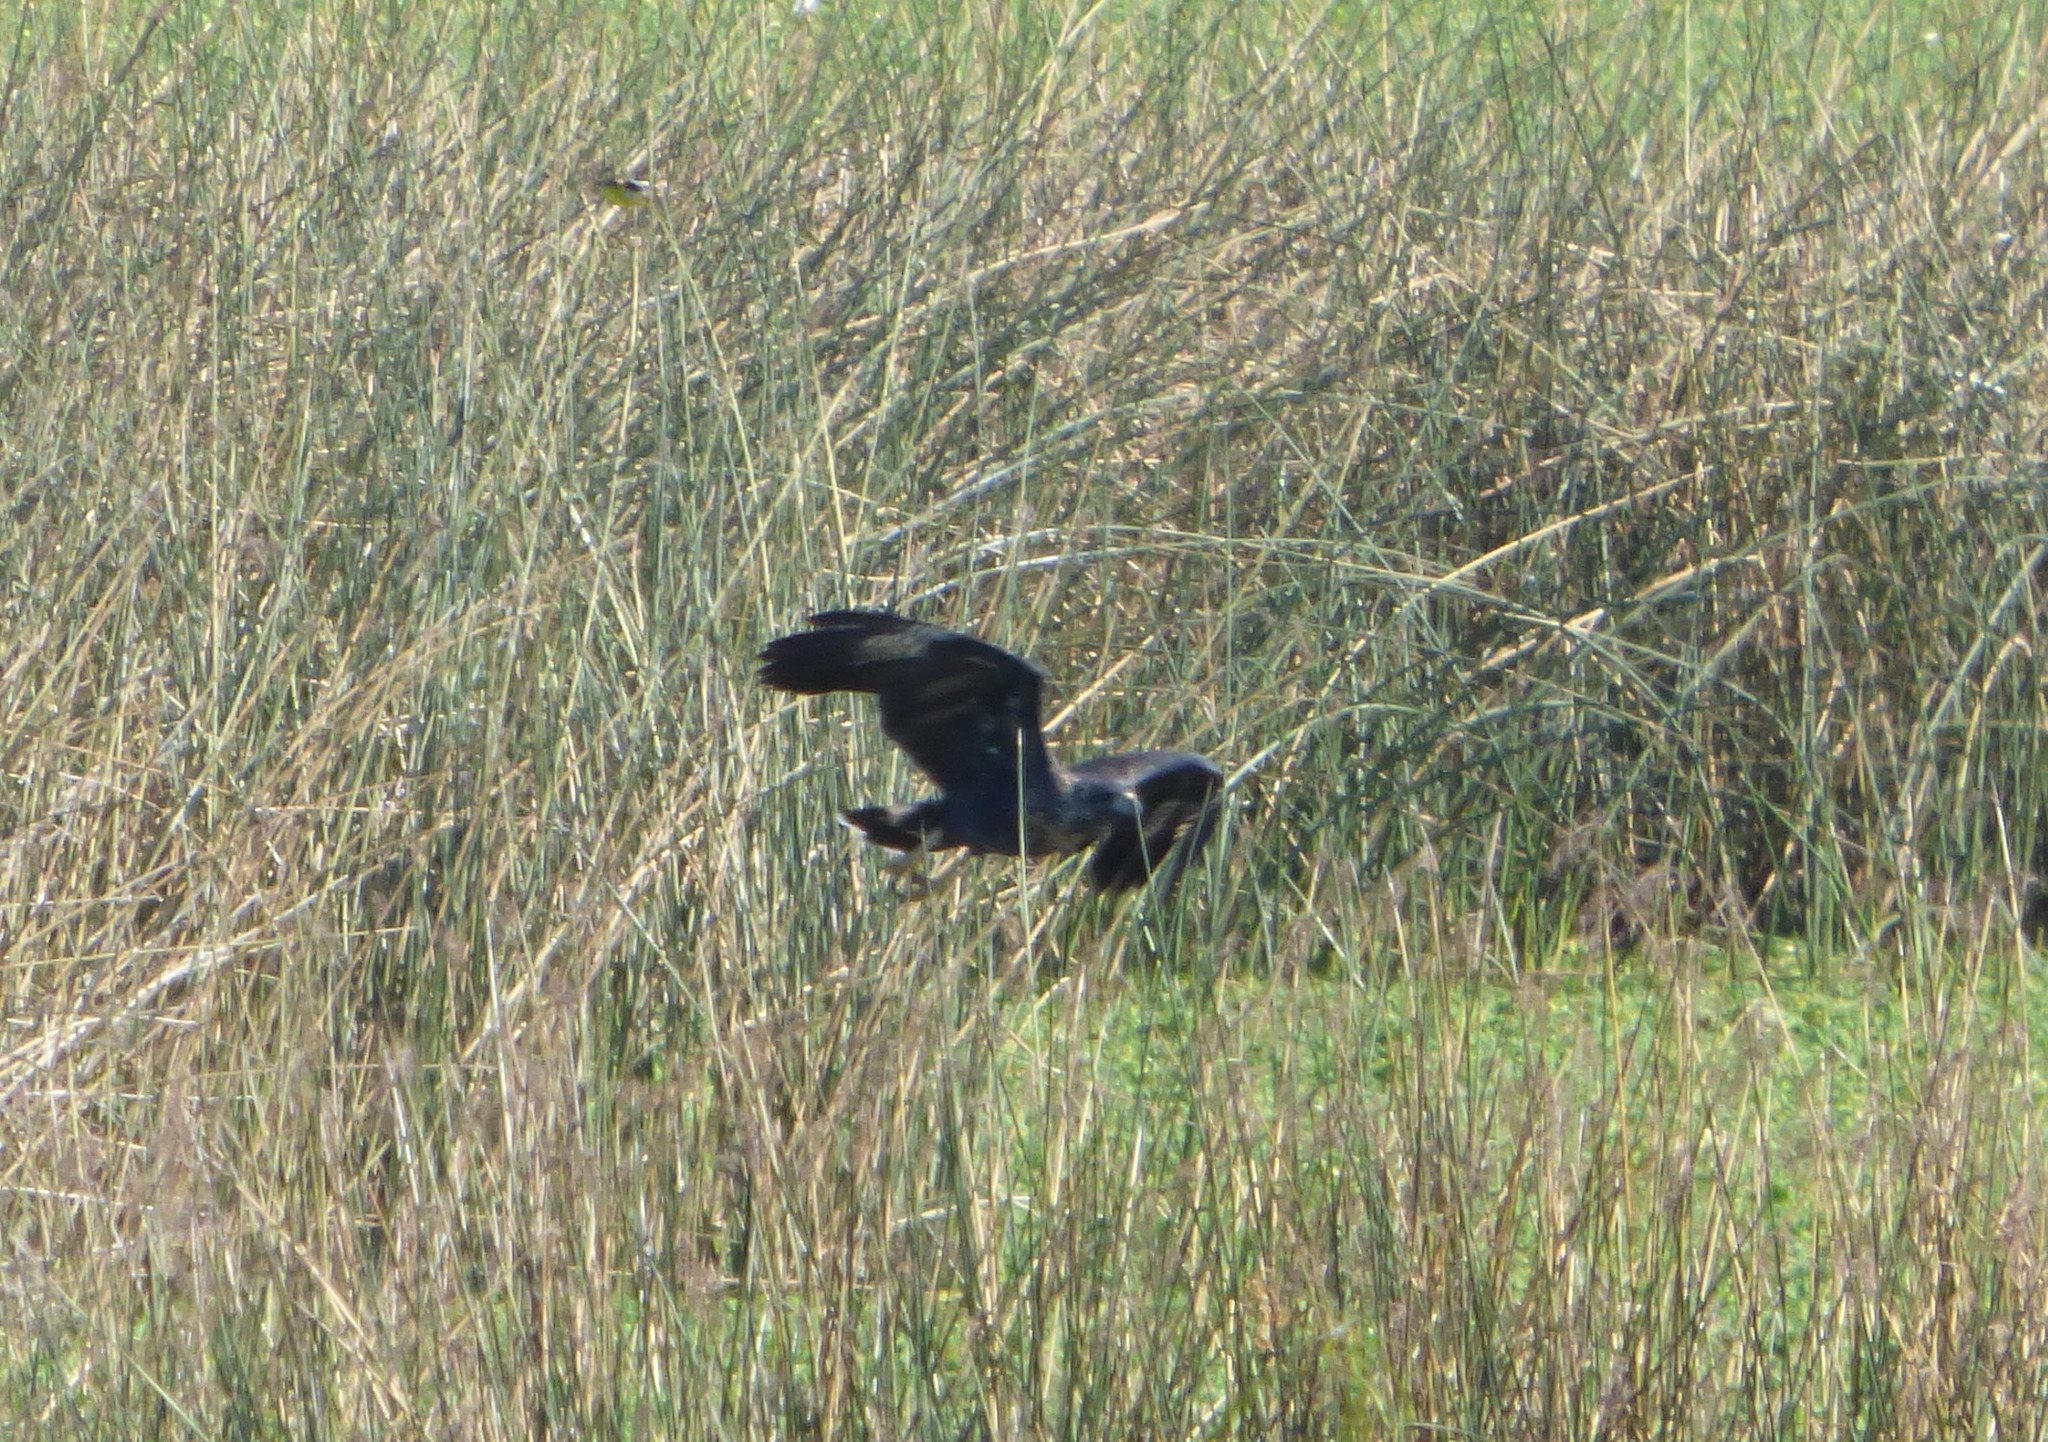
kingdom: Animalia
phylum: Chordata
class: Aves
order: Accipitriformes
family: Accipitridae
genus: Buteogallus
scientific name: Buteogallus urubitinga
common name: Great black hawk
